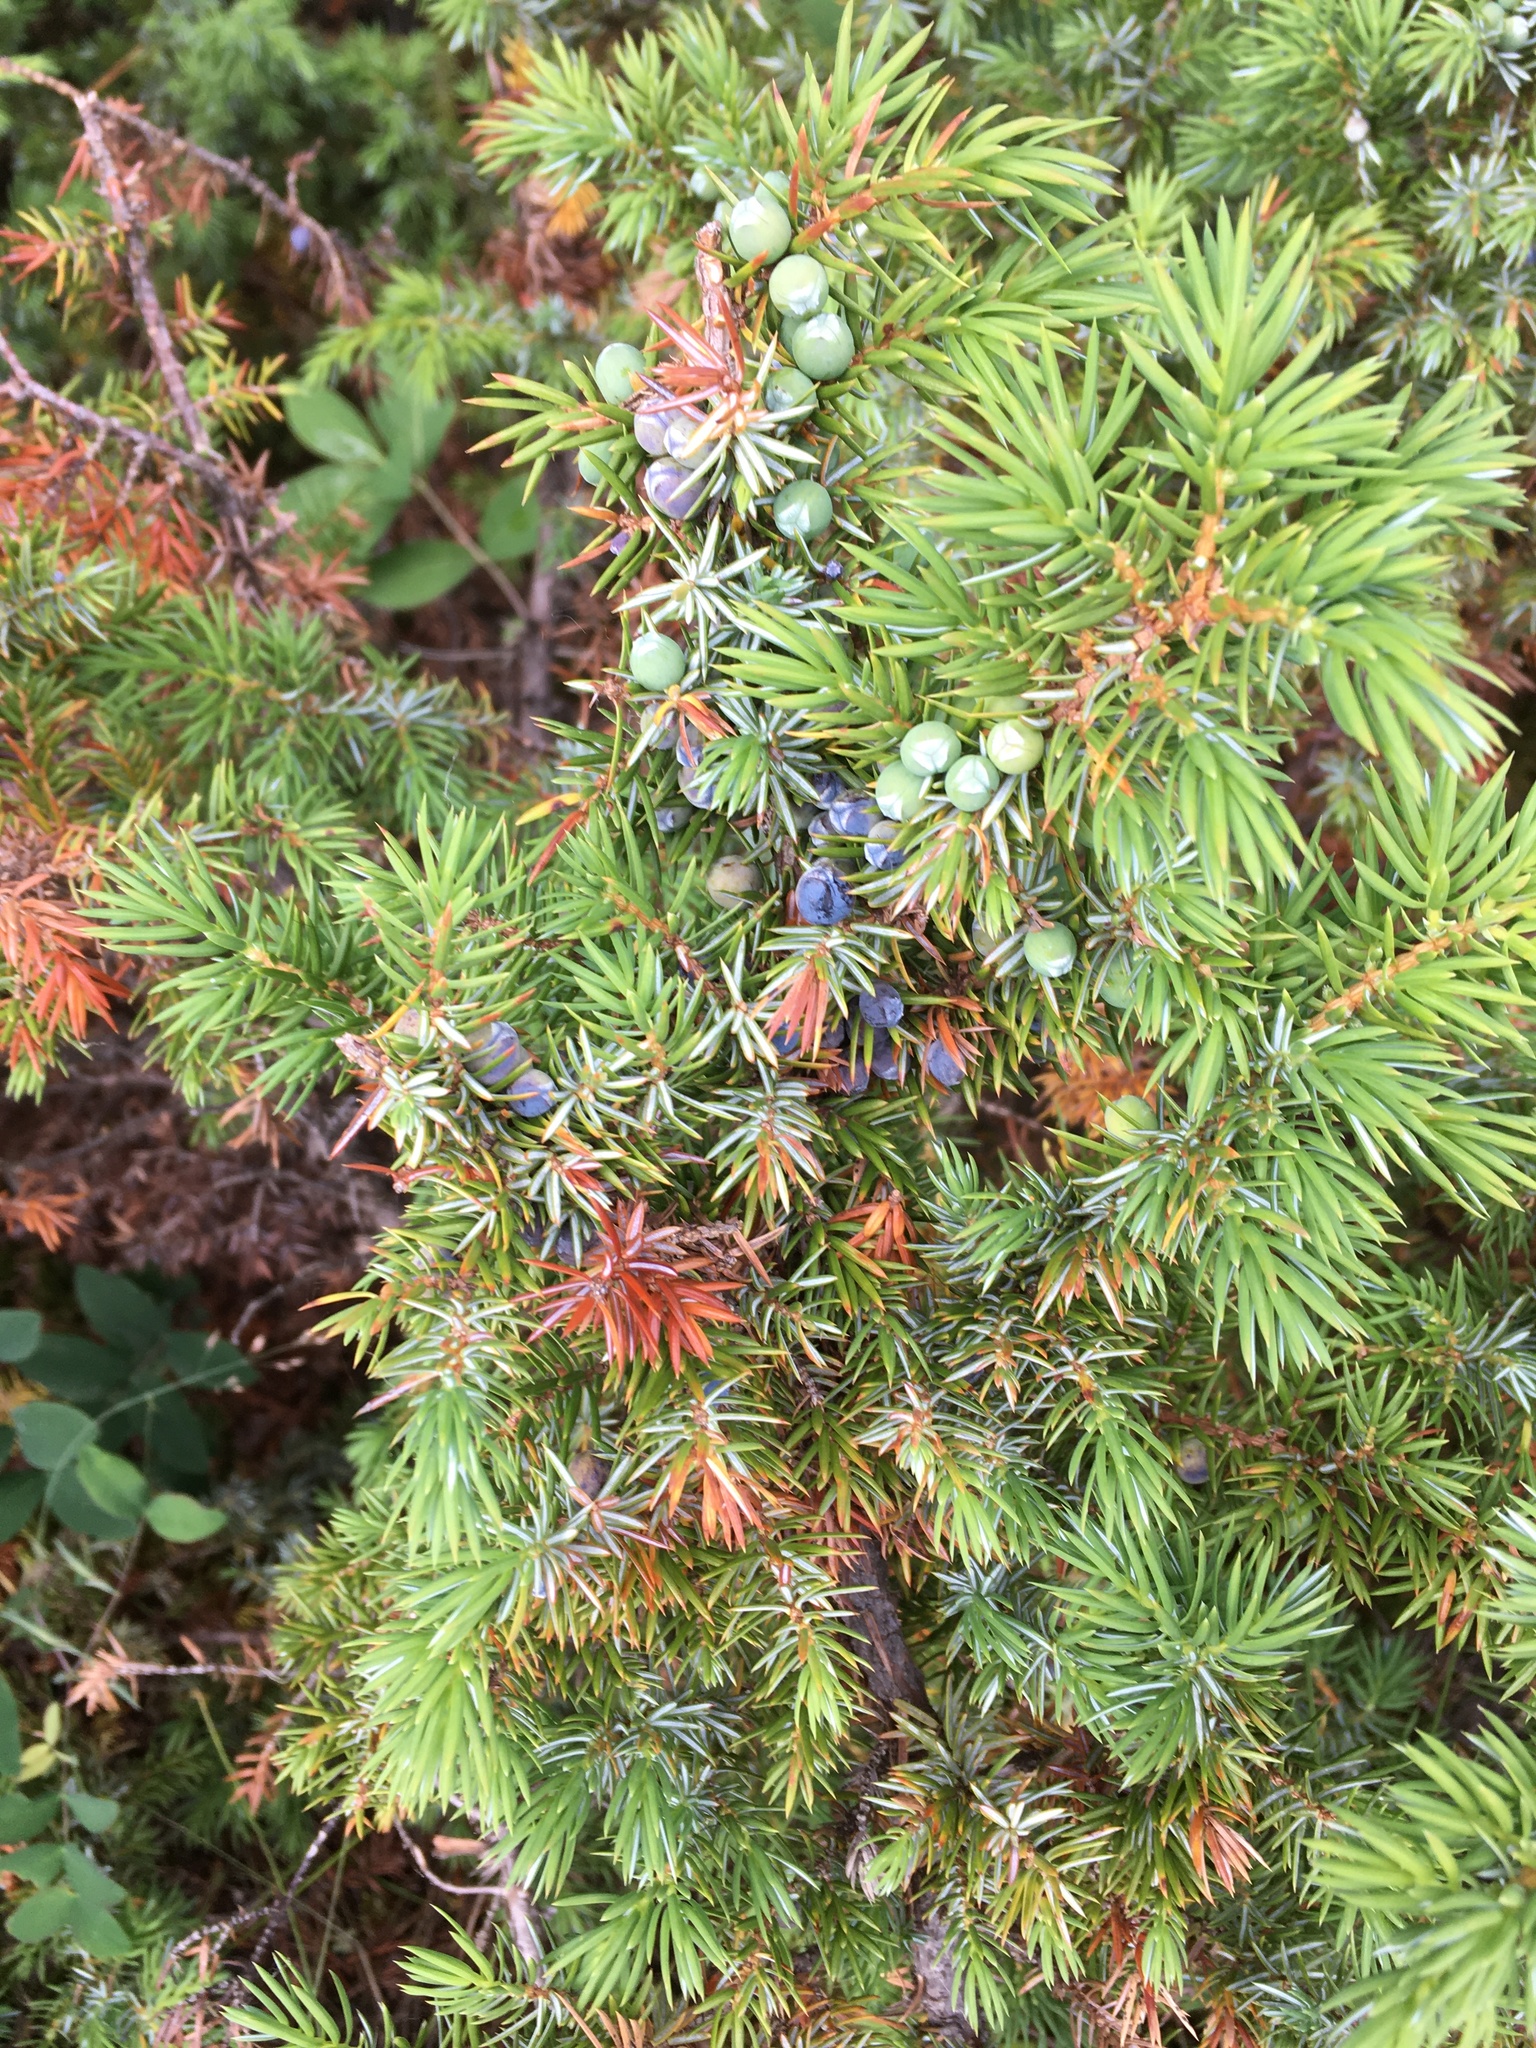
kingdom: Plantae
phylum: Tracheophyta
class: Pinopsida
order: Pinales
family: Cupressaceae
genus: Juniperus
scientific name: Juniperus communis
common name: Common juniper
